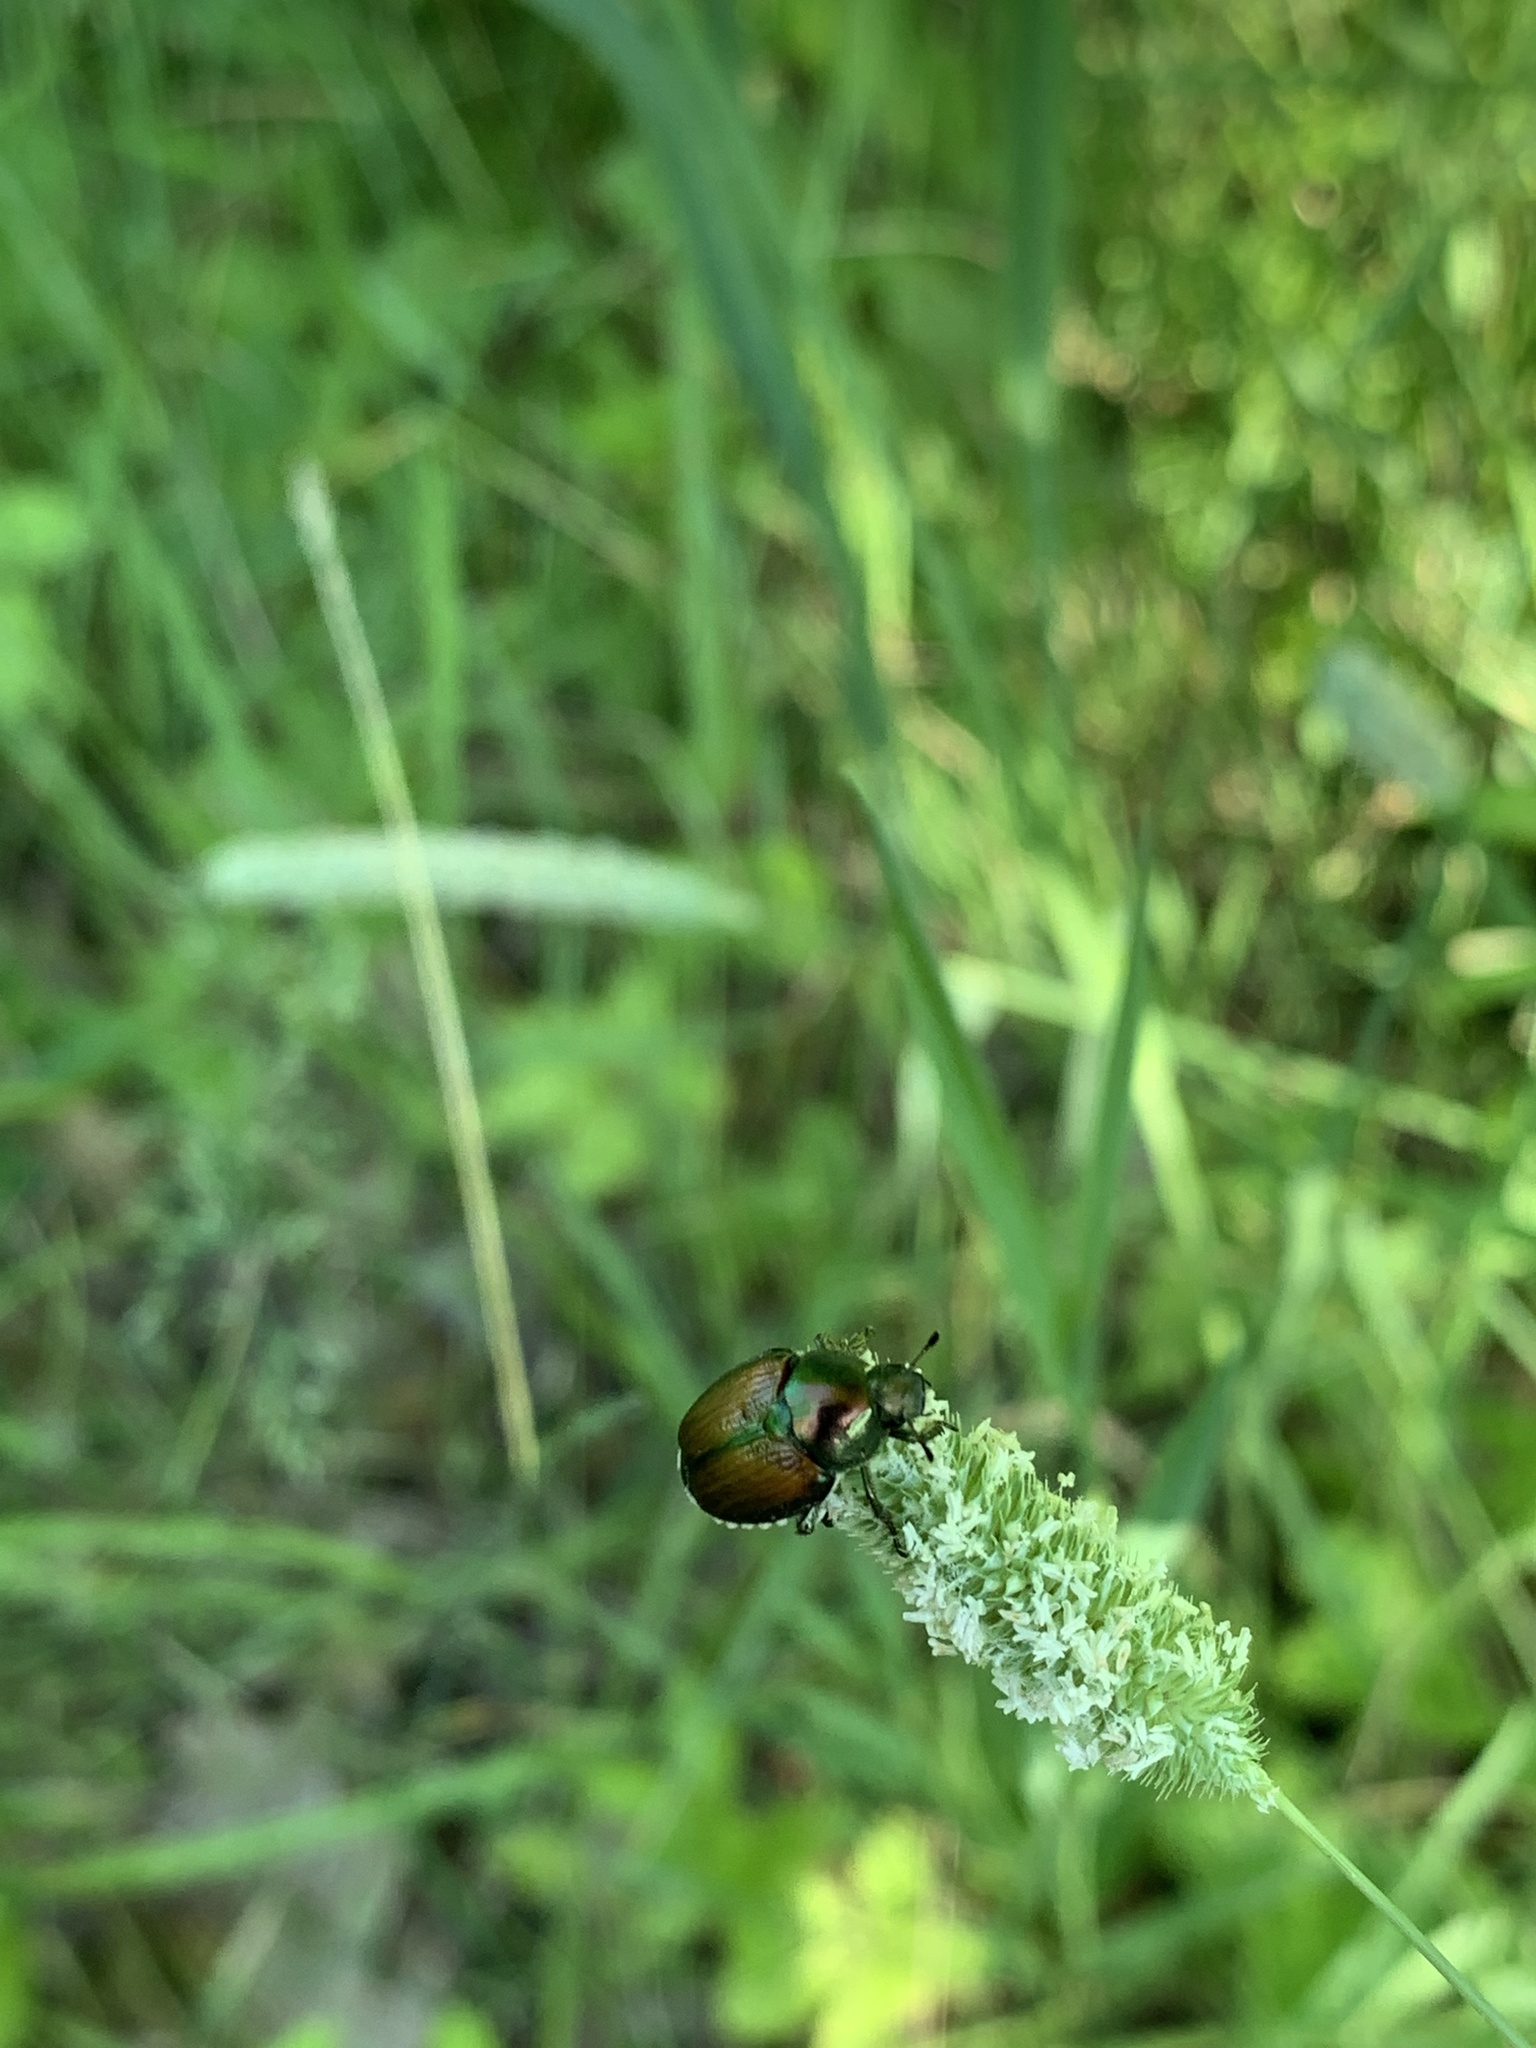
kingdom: Animalia
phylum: Arthropoda
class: Insecta
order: Coleoptera
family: Scarabaeidae
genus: Popillia
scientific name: Popillia japonica
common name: Japanese beetle
